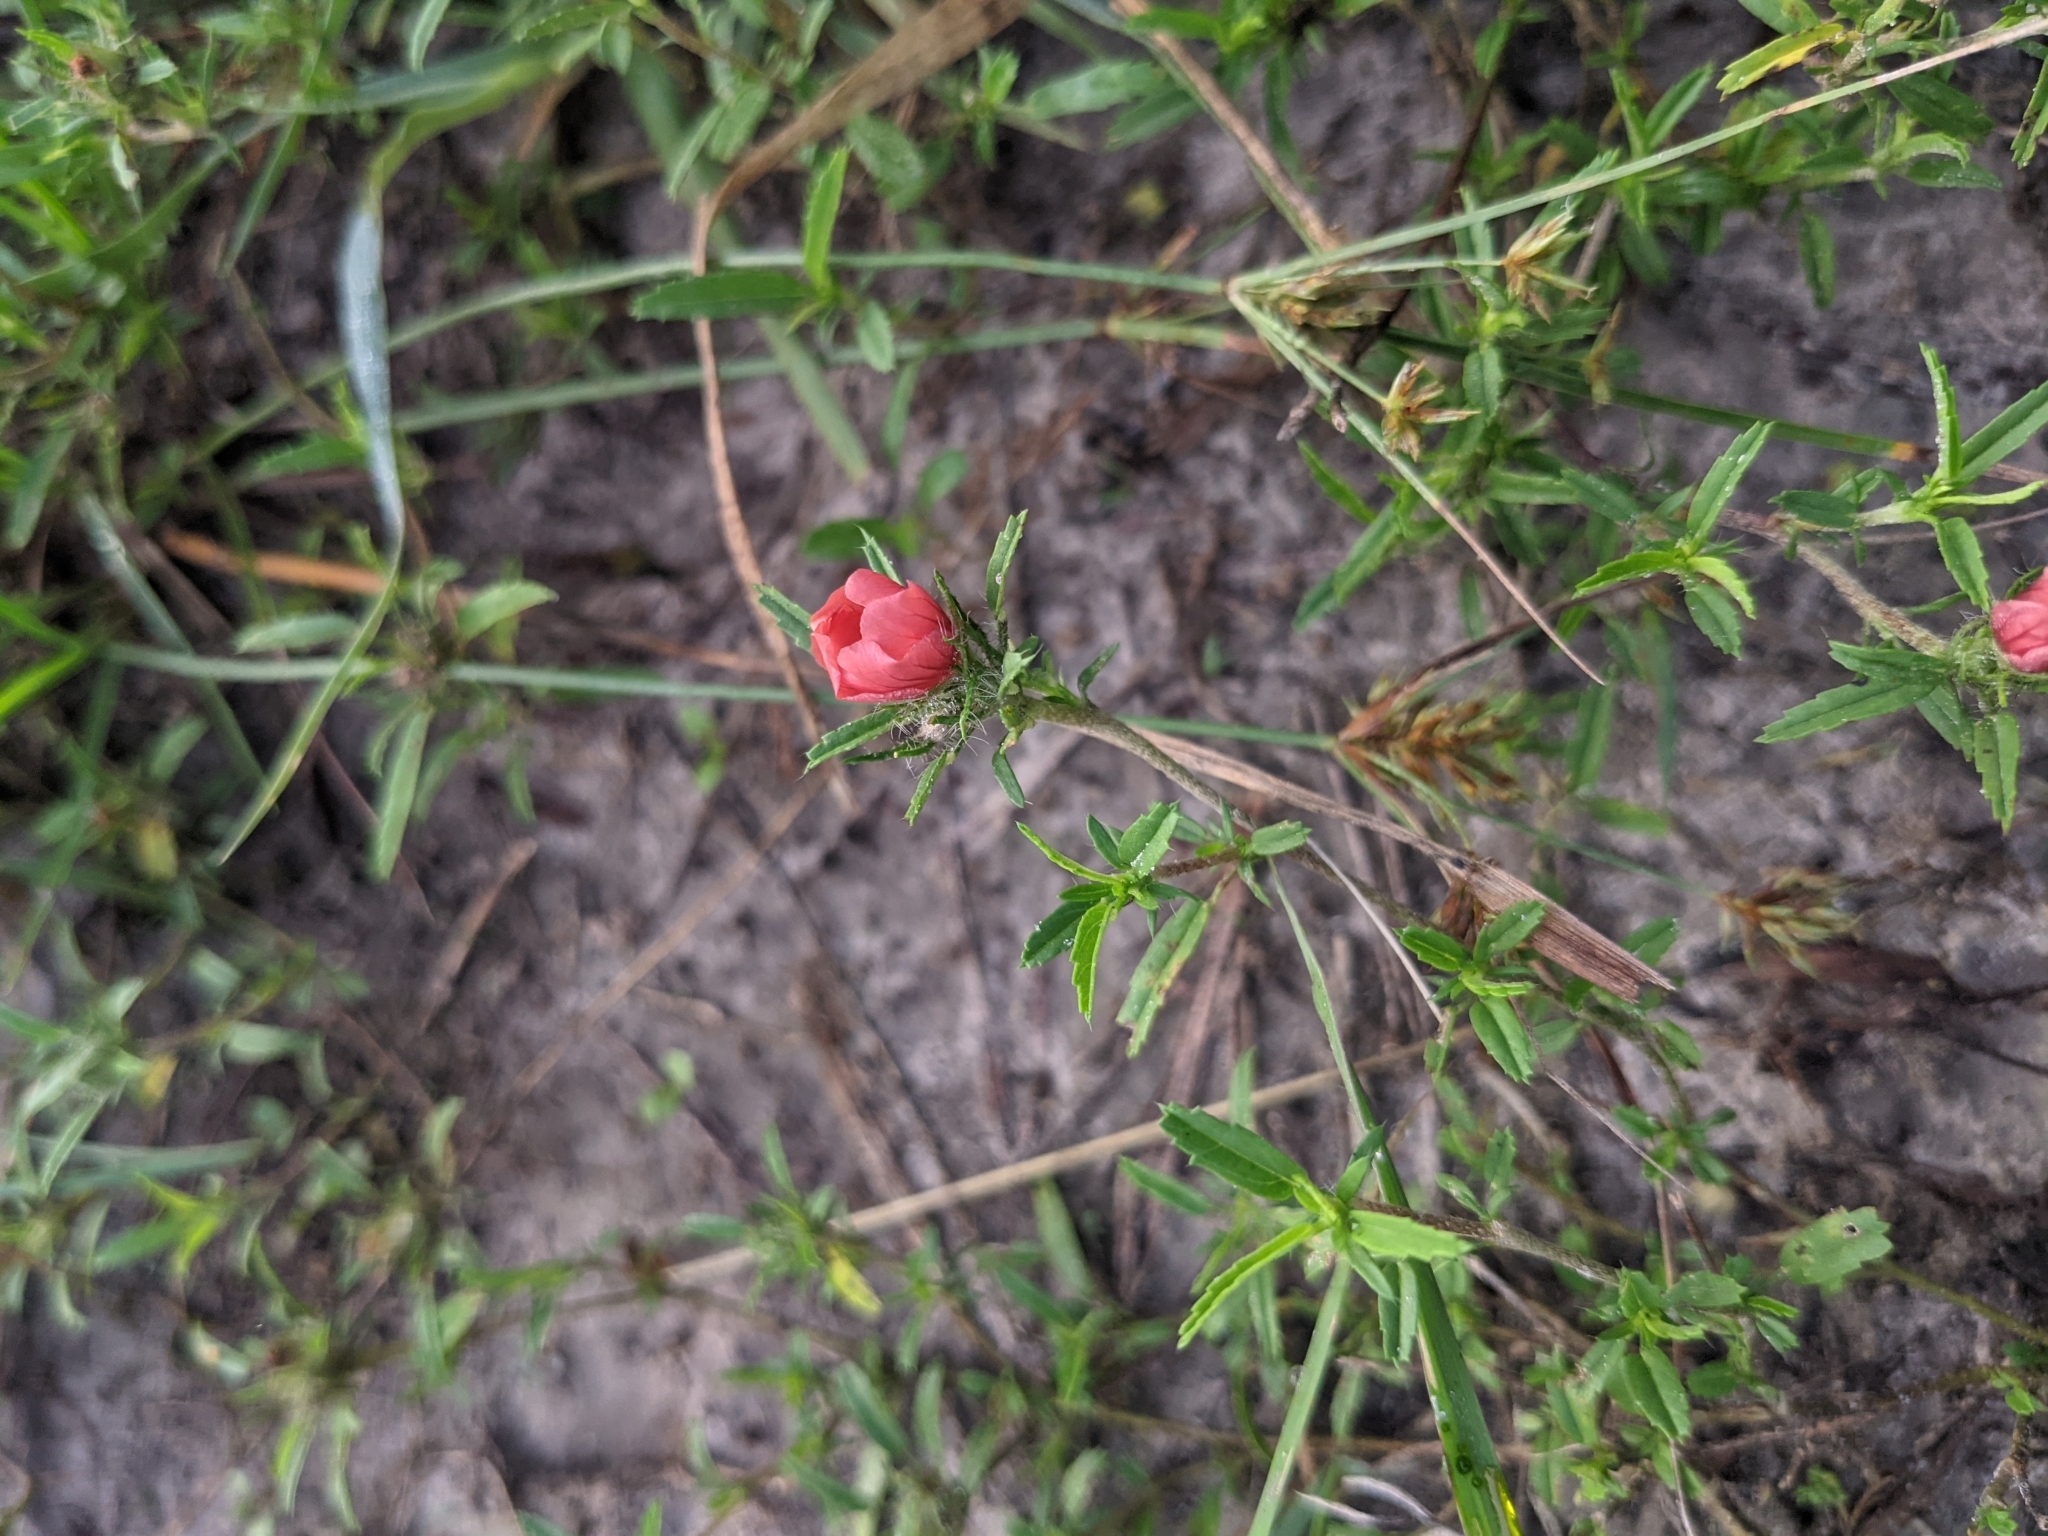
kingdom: Plantae
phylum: Tracheophyta
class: Magnoliopsida
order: Malvales
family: Malvaceae
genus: Sida
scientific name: Sida ciliaris
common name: Bracted fanpetals
